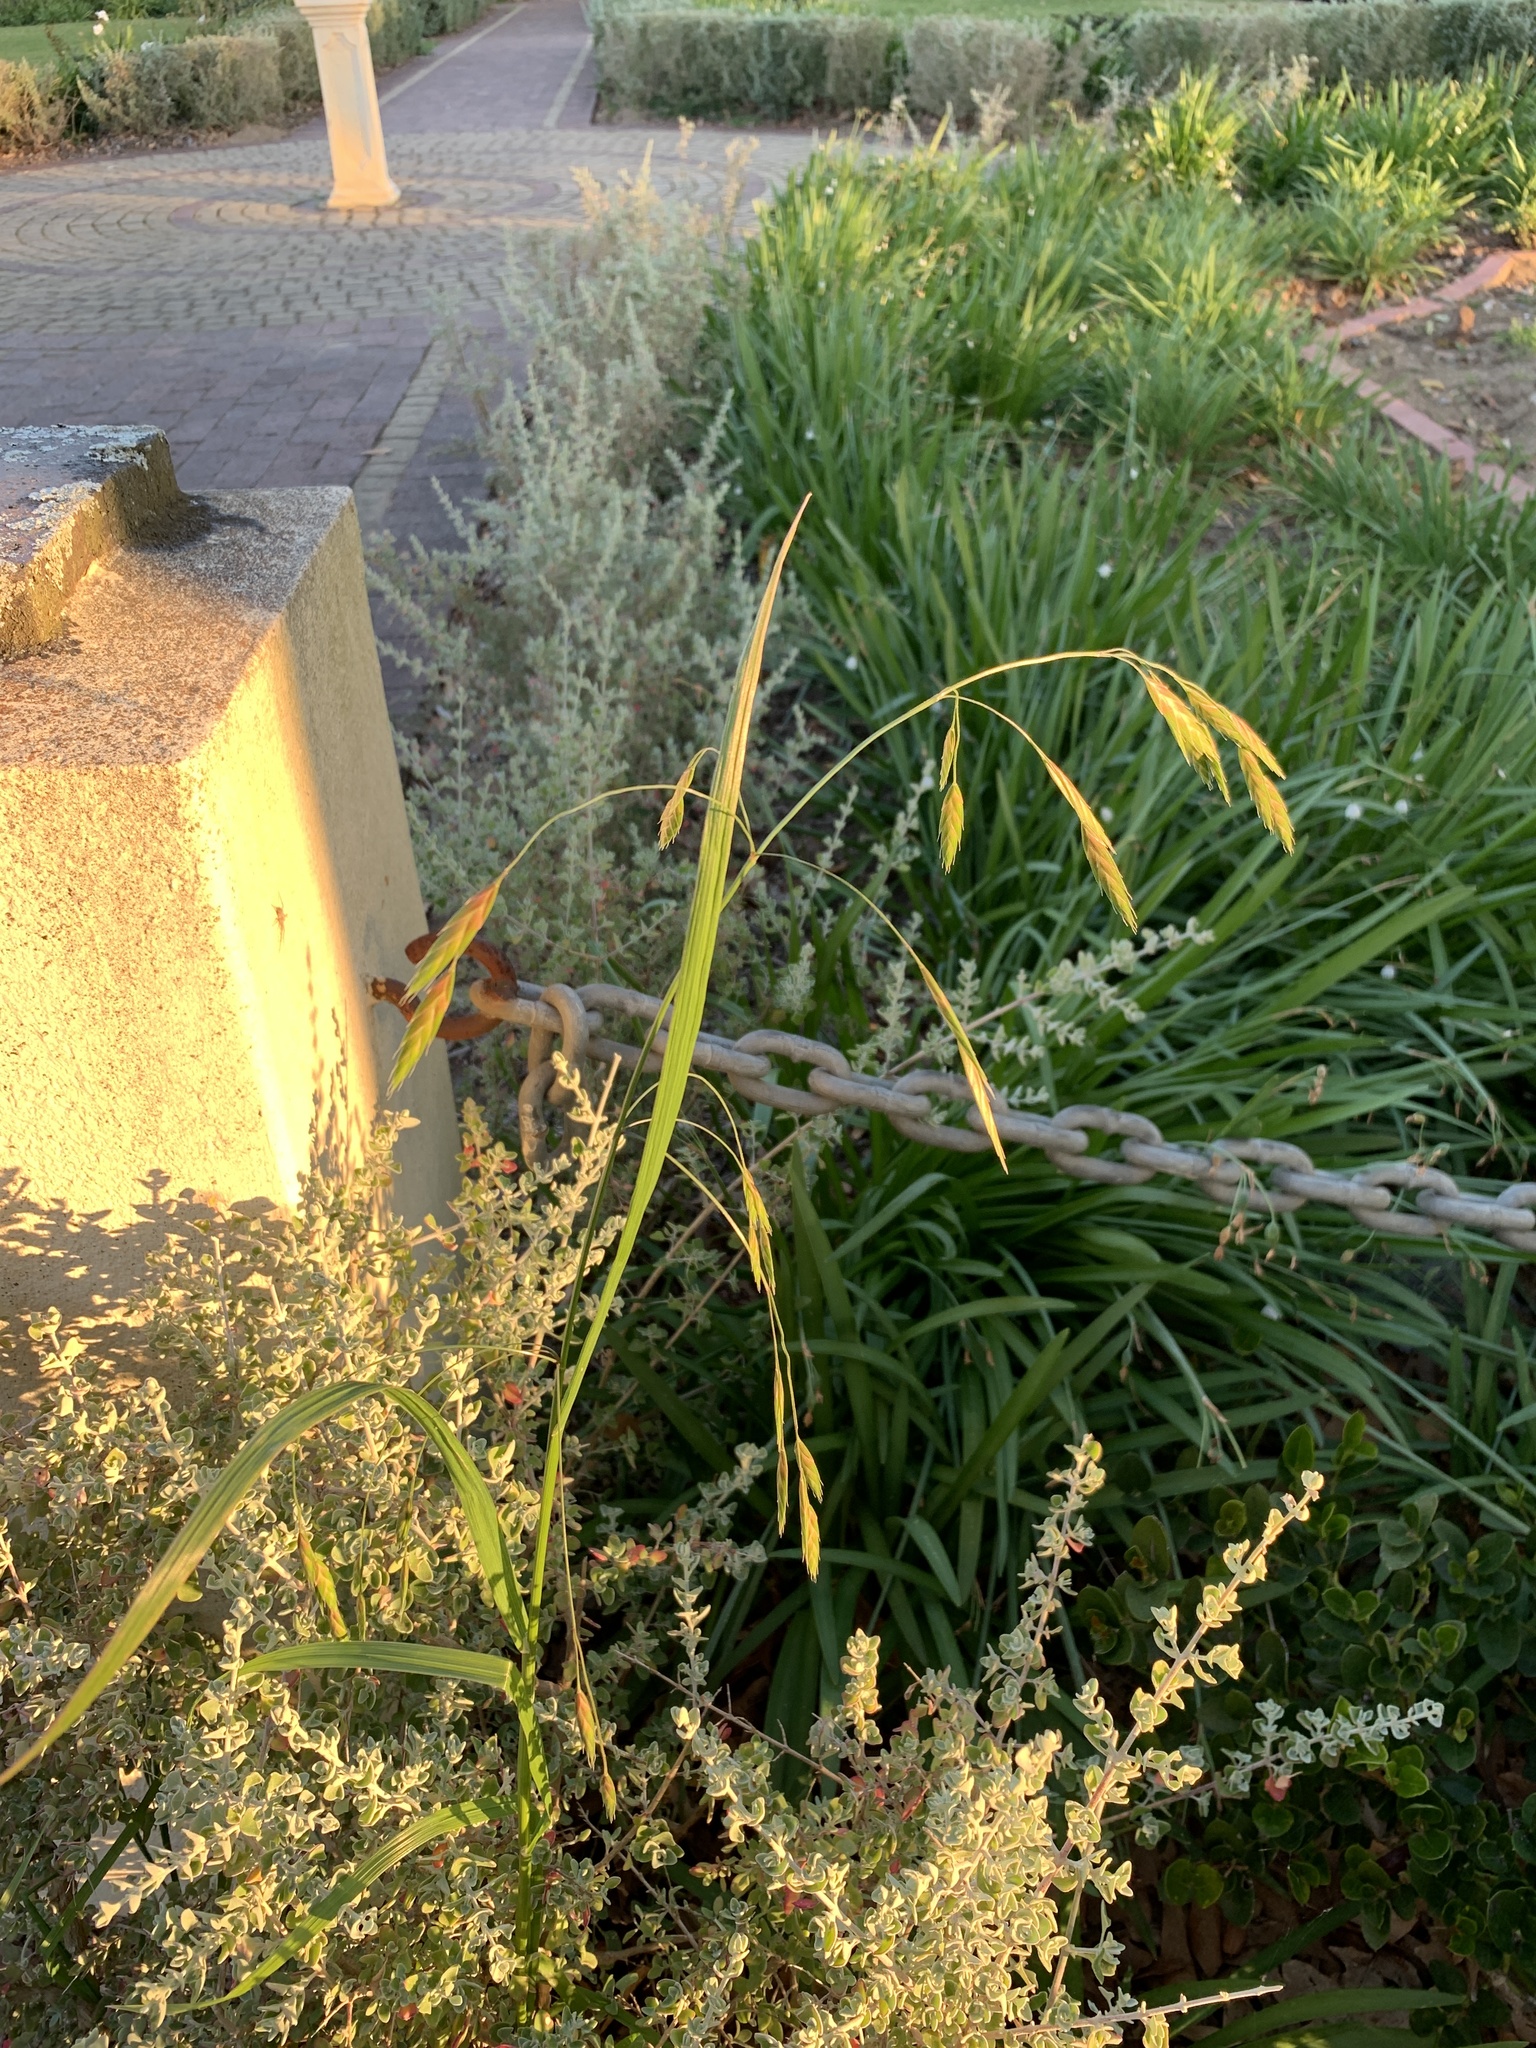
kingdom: Plantae
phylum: Tracheophyta
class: Liliopsida
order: Poales
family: Poaceae
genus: Bromus
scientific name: Bromus catharticus
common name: Rescuegrass
